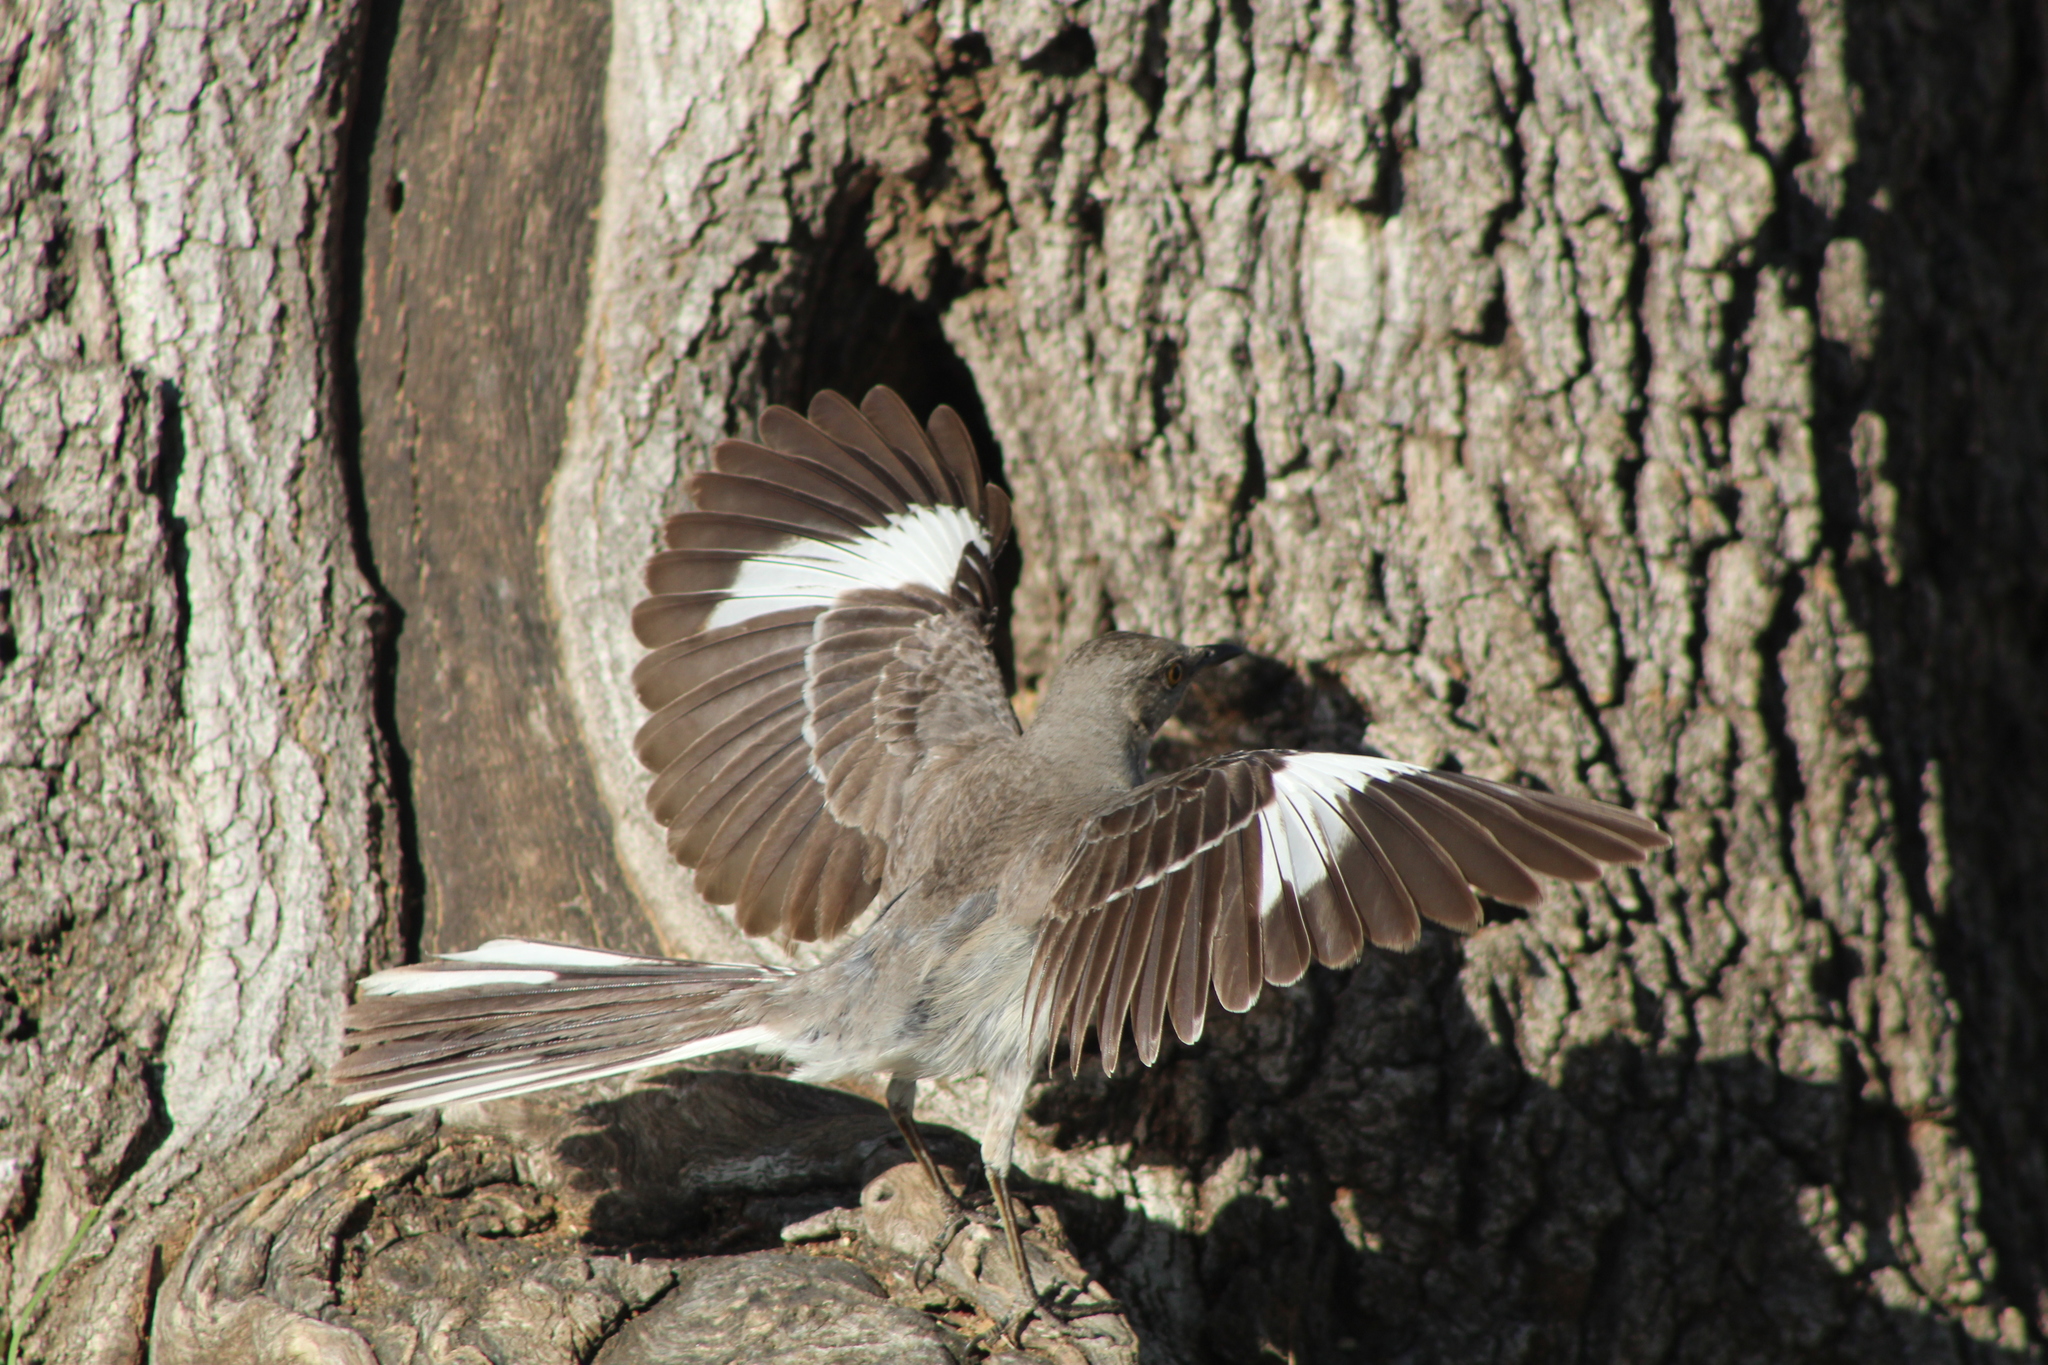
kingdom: Animalia
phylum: Chordata
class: Aves
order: Passeriformes
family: Mimidae
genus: Mimus
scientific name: Mimus polyglottos
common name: Northern mockingbird
